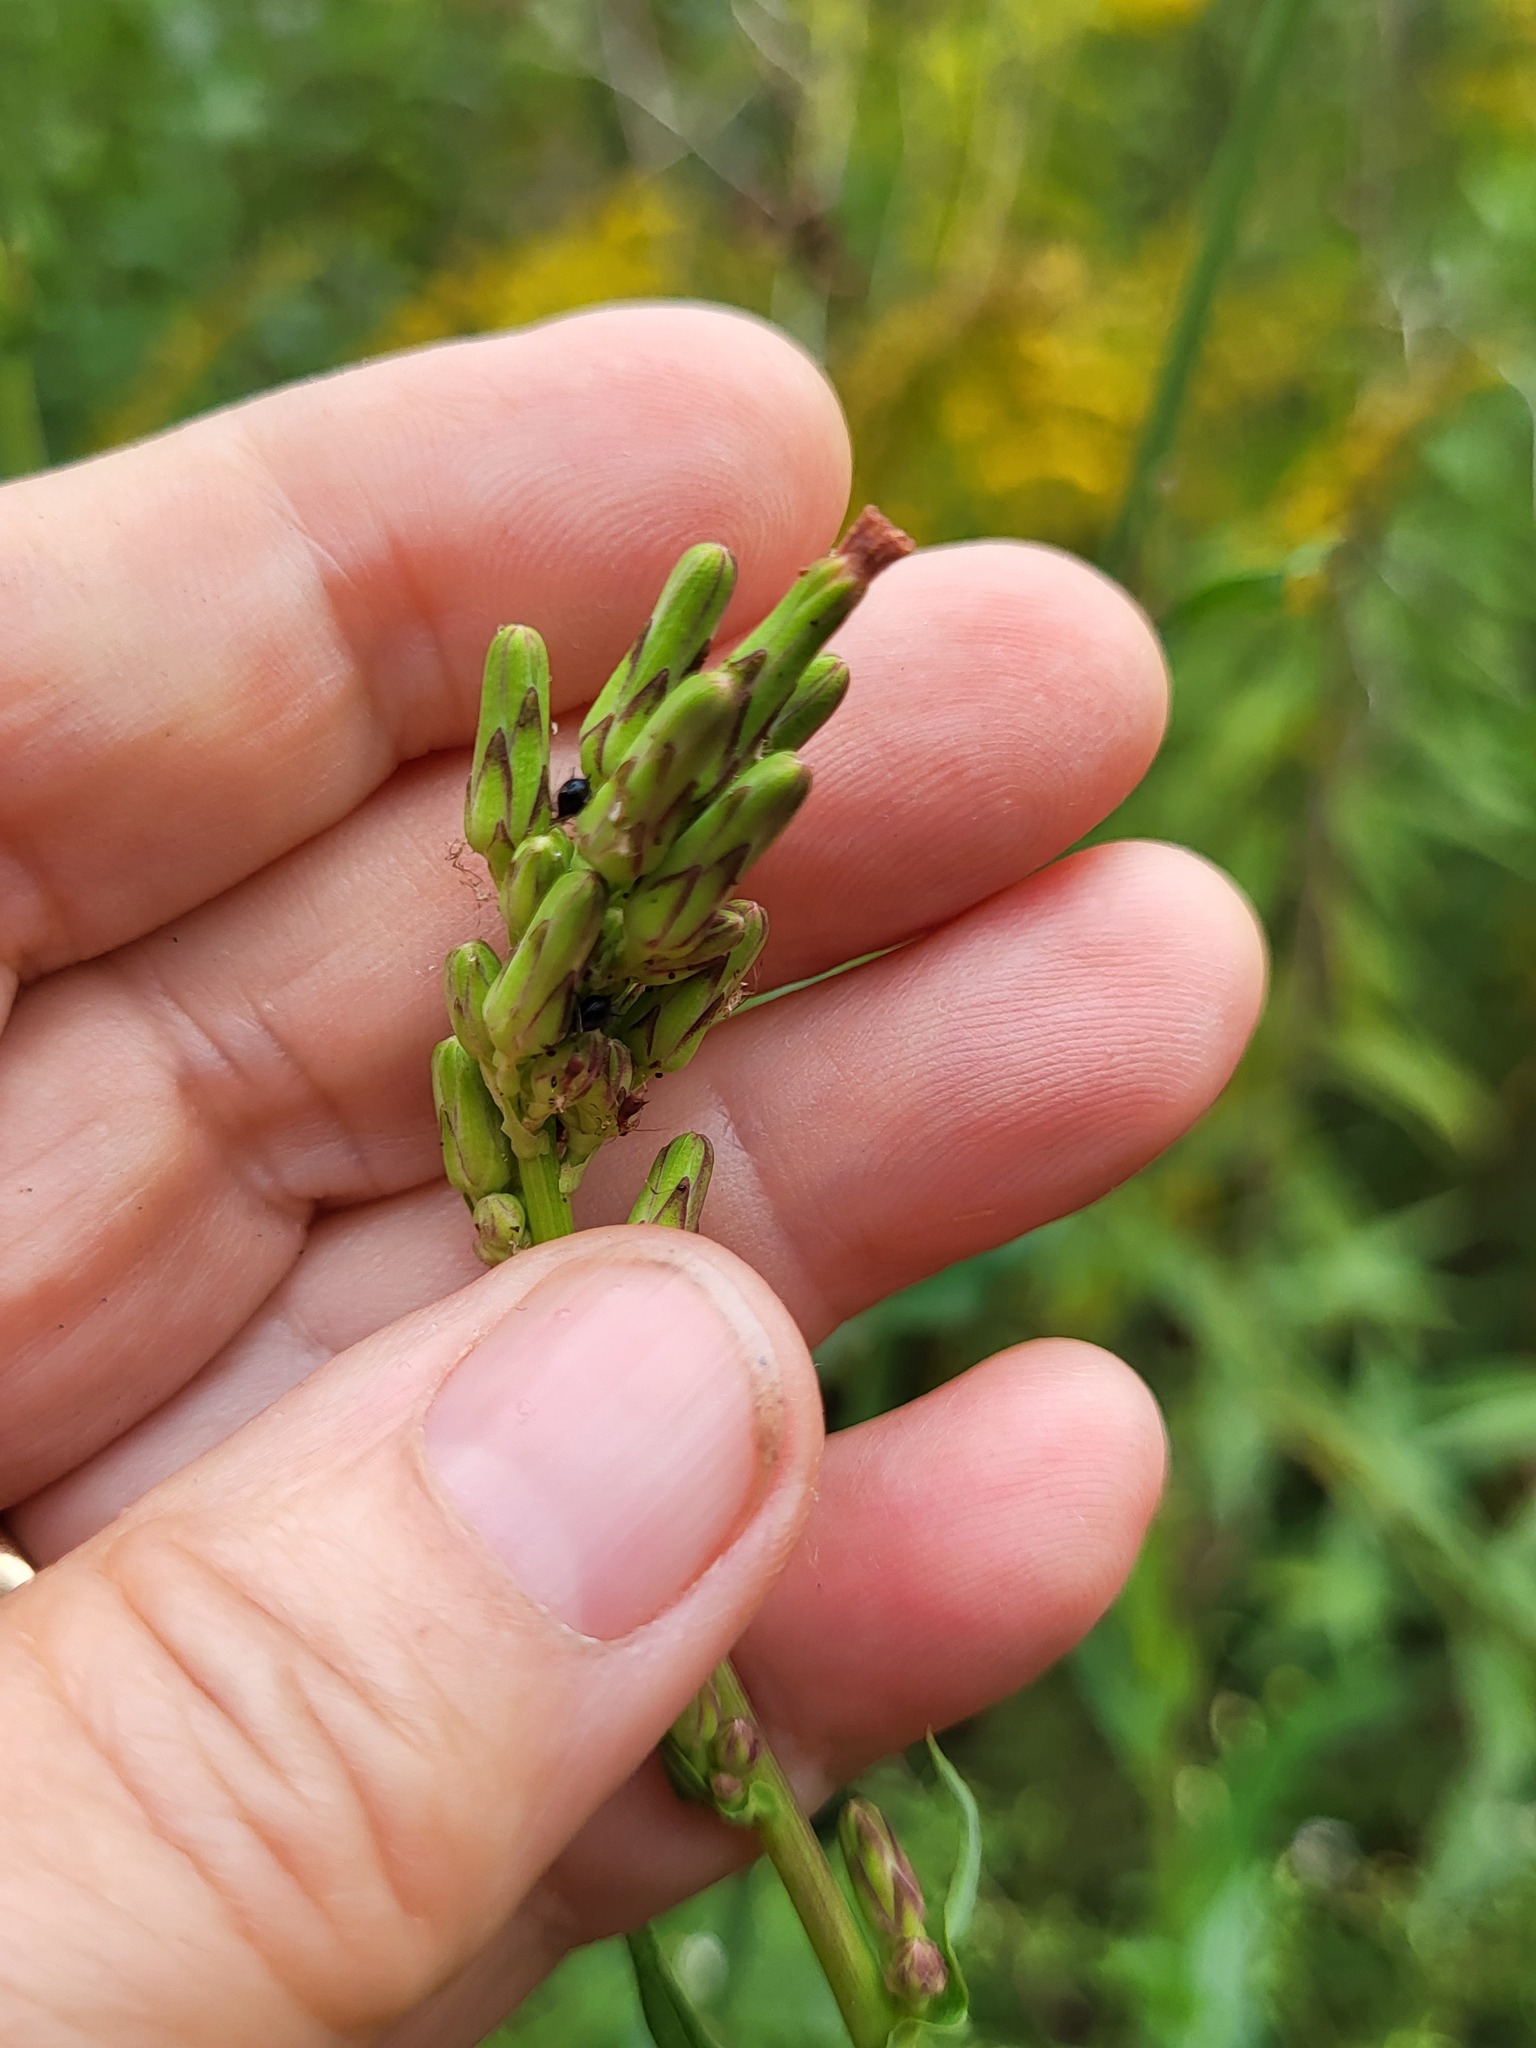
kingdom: Plantae
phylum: Tracheophyta
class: Magnoliopsida
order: Asterales
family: Asteraceae
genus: Lactuca
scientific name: Lactuca canadensis
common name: Canada lettuce
